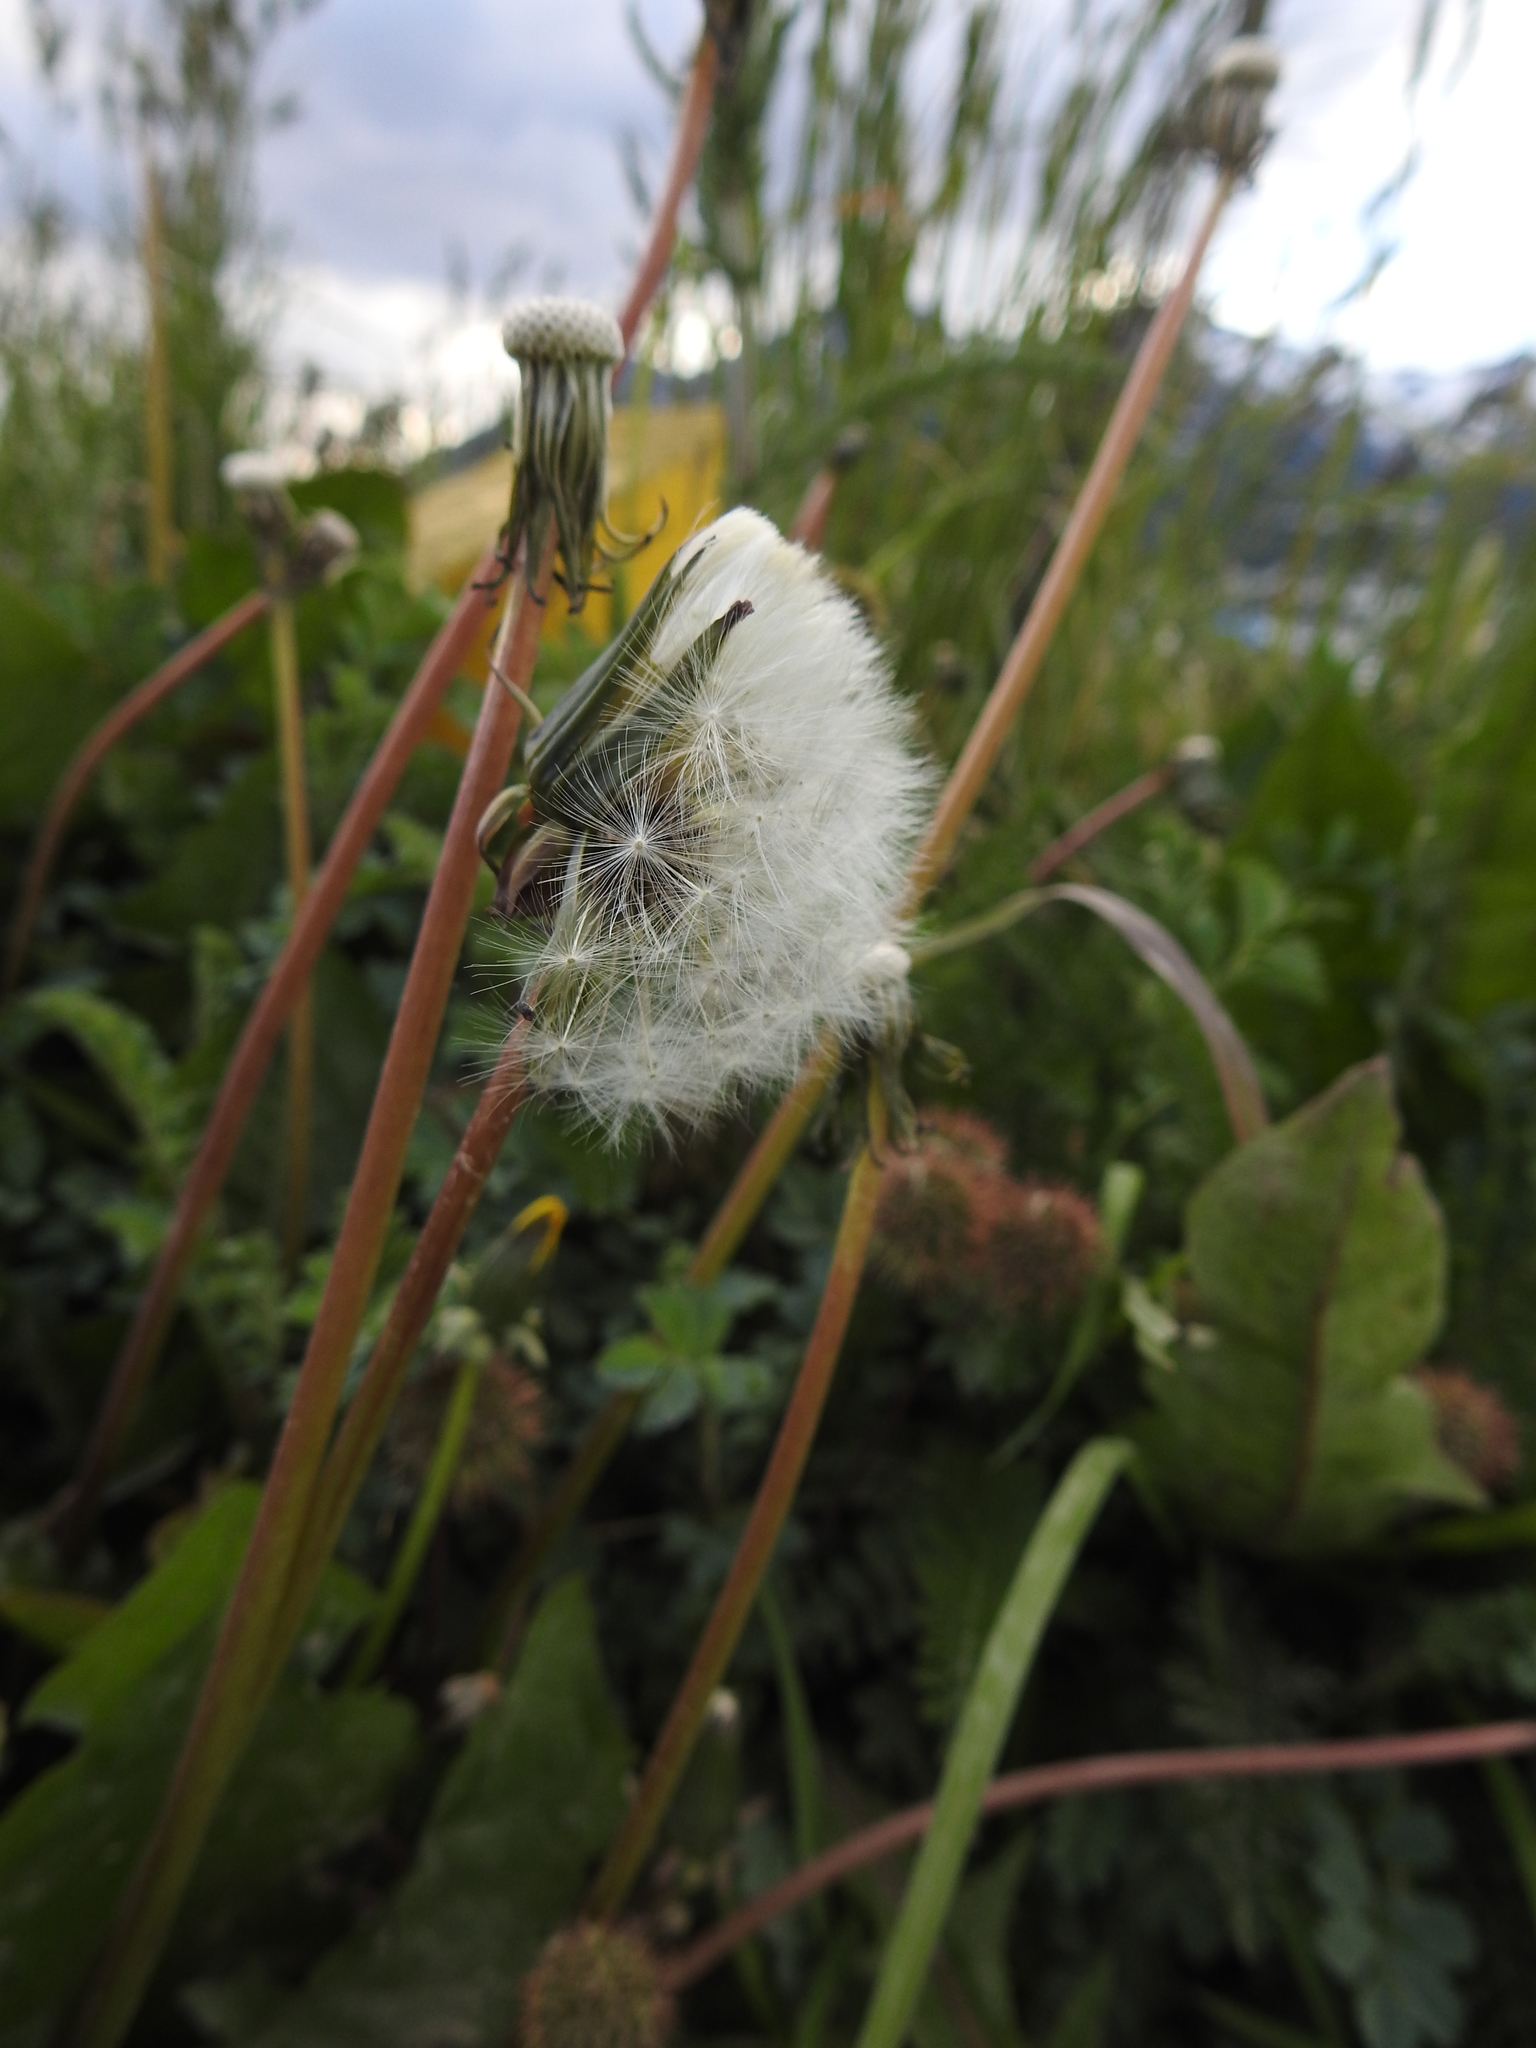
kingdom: Plantae
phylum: Tracheophyta
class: Magnoliopsida
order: Asterales
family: Asteraceae
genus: Taraxacum
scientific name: Taraxacum officinale
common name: Common dandelion
